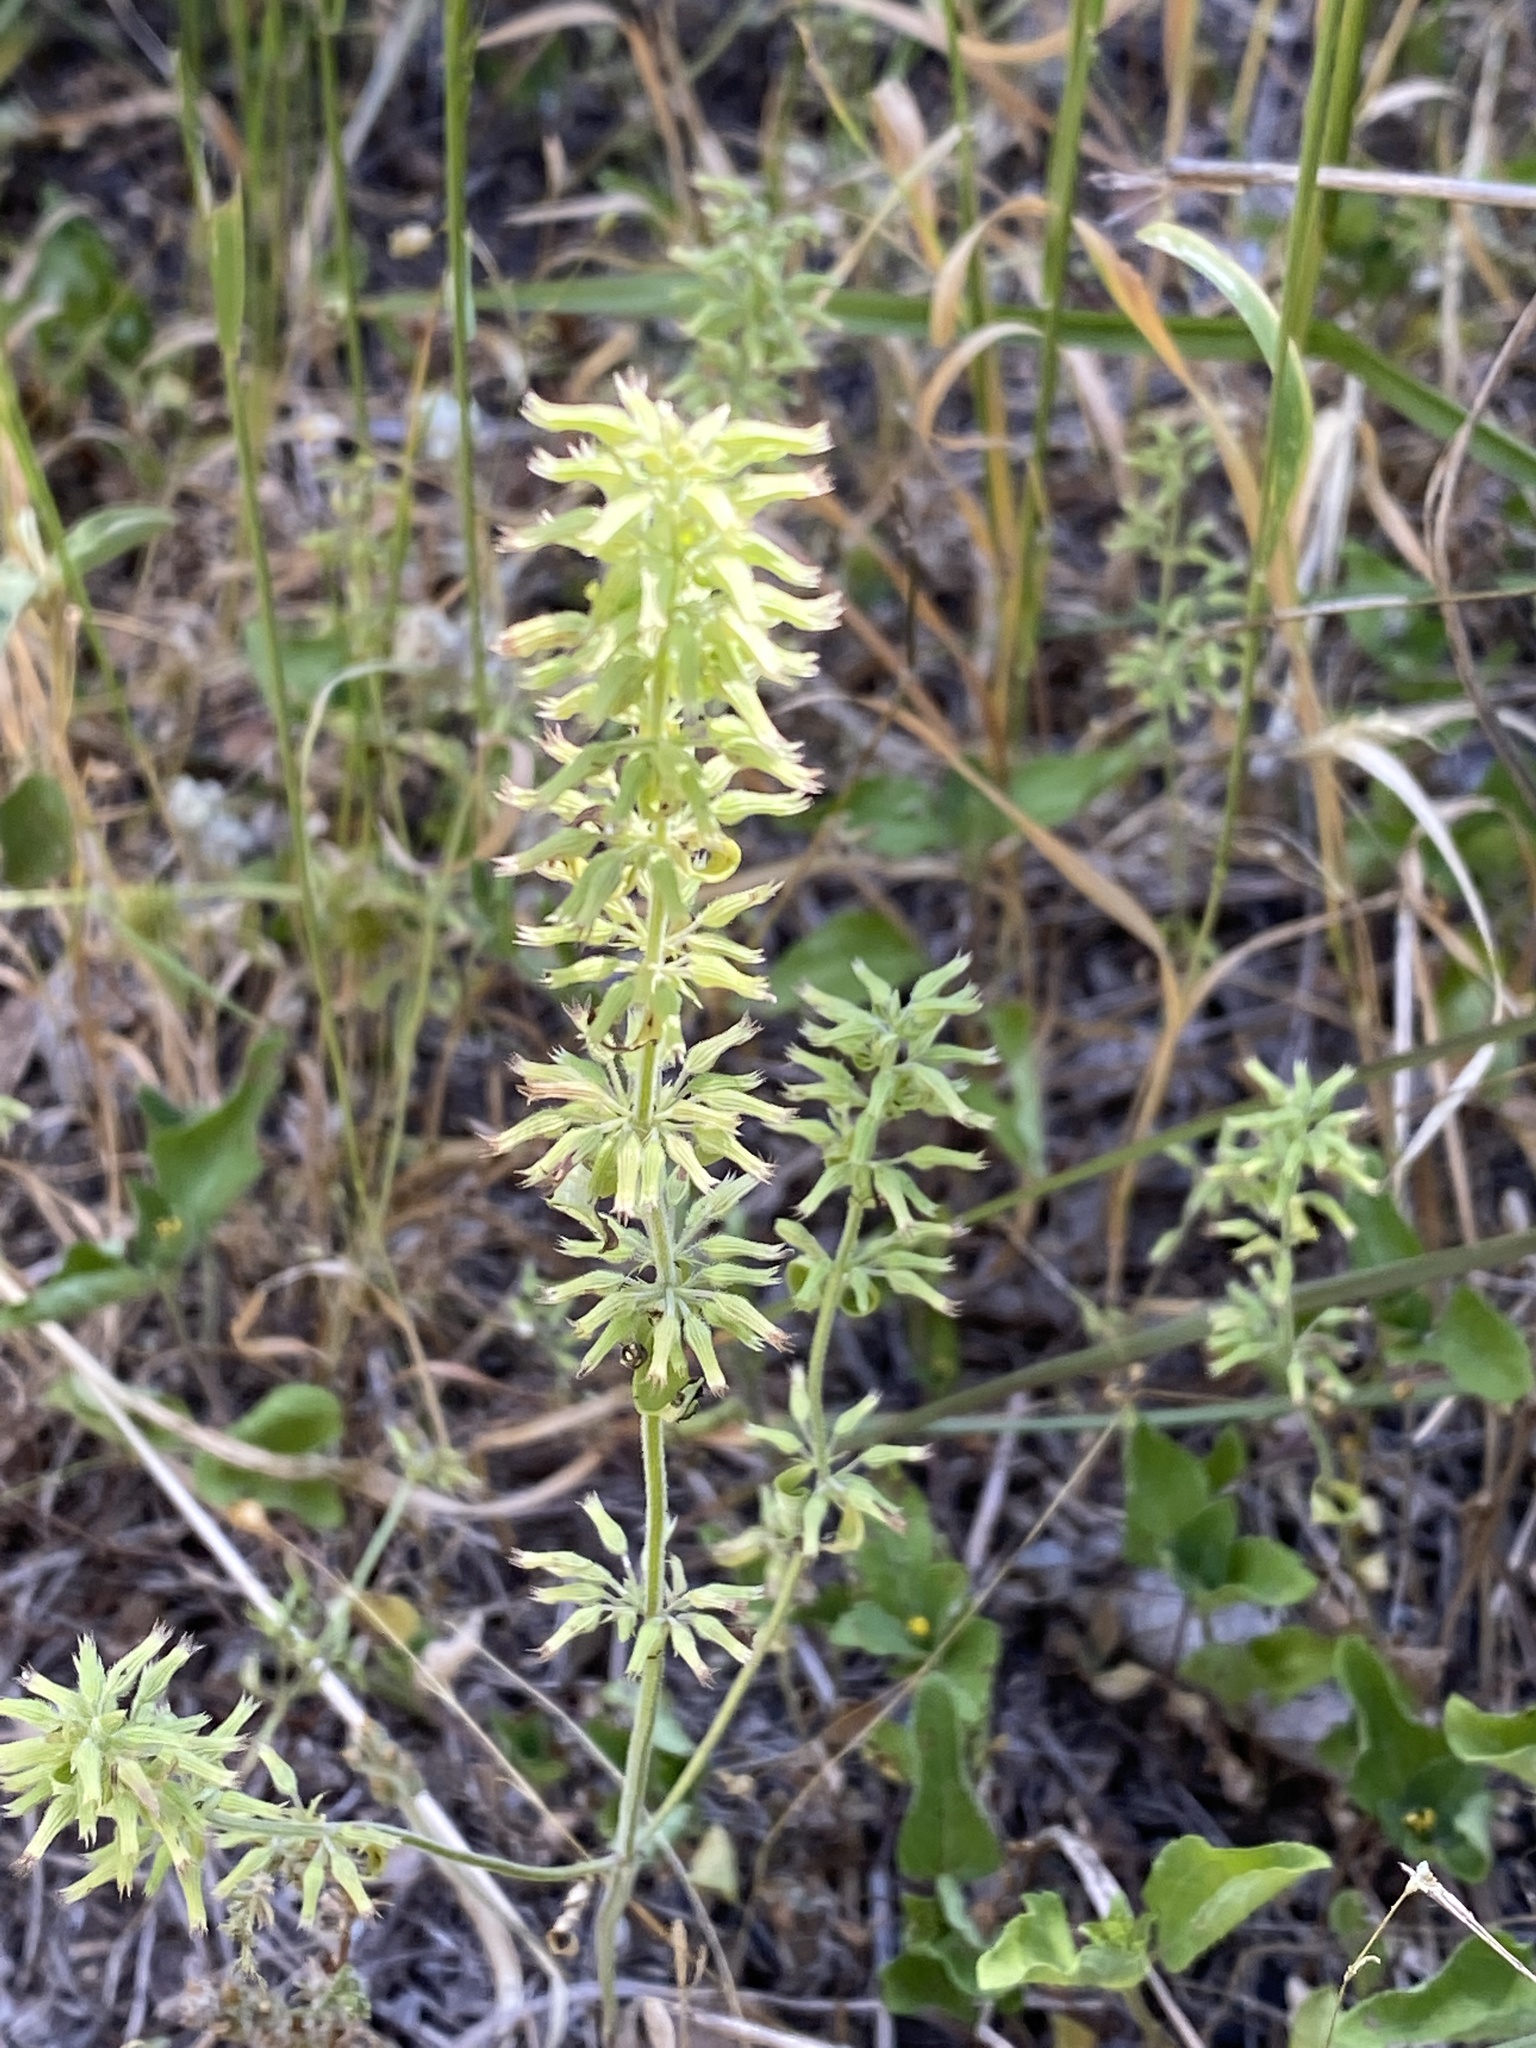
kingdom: Plantae
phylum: Tracheophyta
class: Magnoliopsida
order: Lamiales
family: Lamiaceae
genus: Hedeoma
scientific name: Hedeoma acinoides
